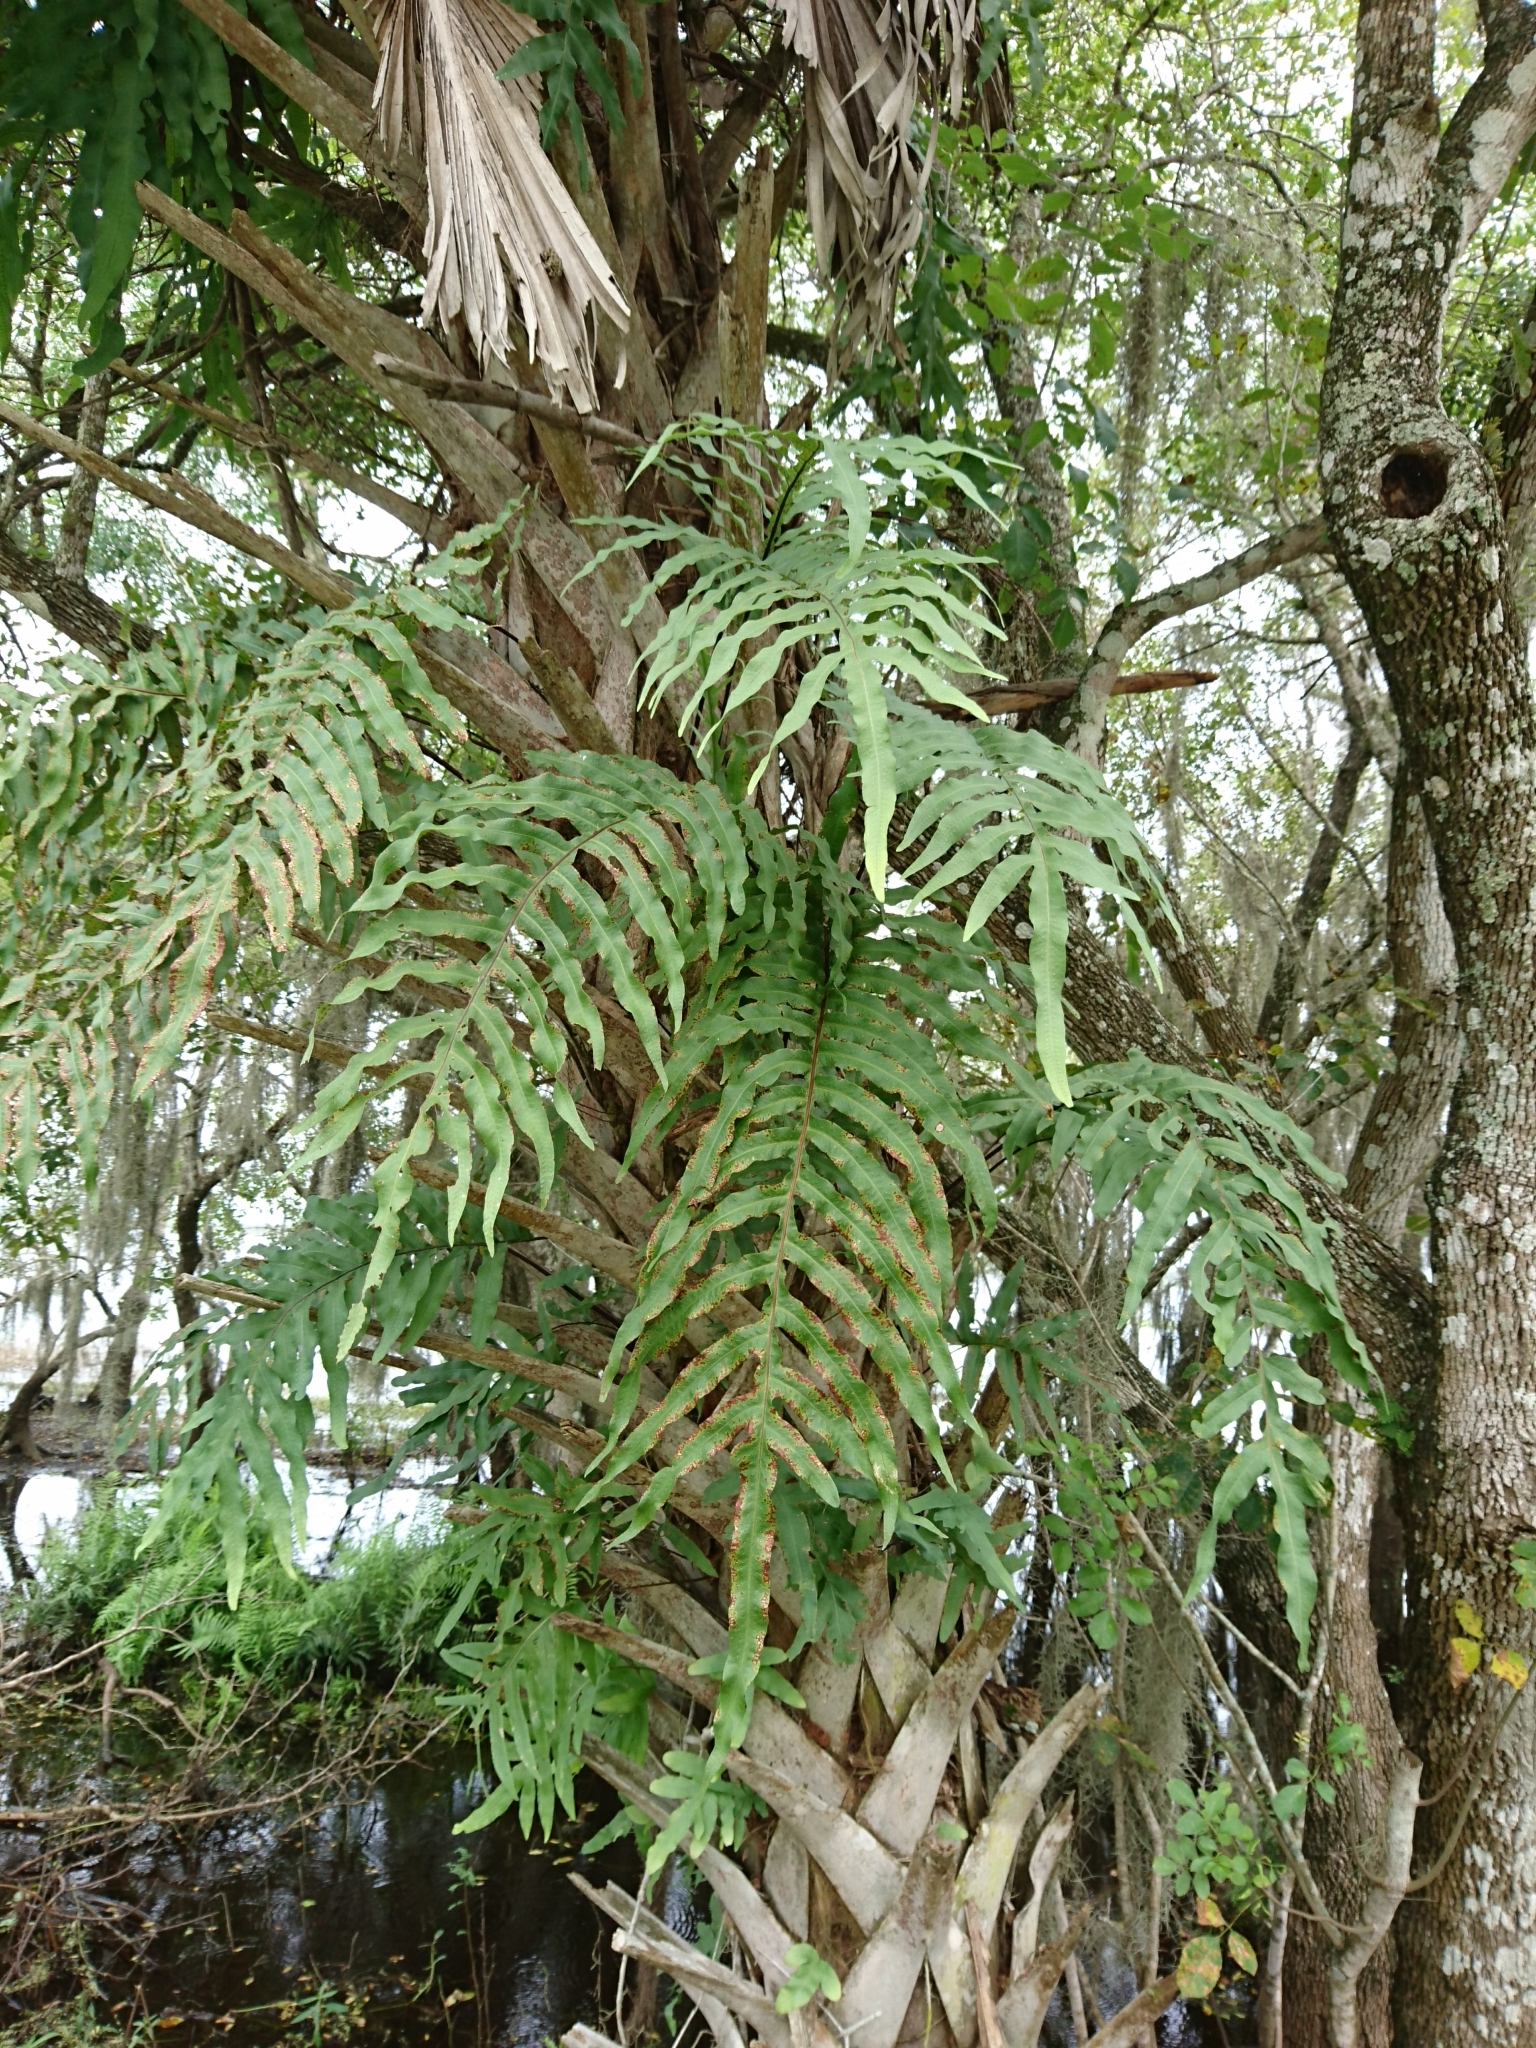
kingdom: Plantae
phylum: Tracheophyta
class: Polypodiopsida
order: Polypodiales
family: Polypodiaceae
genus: Phlebodium
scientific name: Phlebodium aureum
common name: Gold-foot fern
